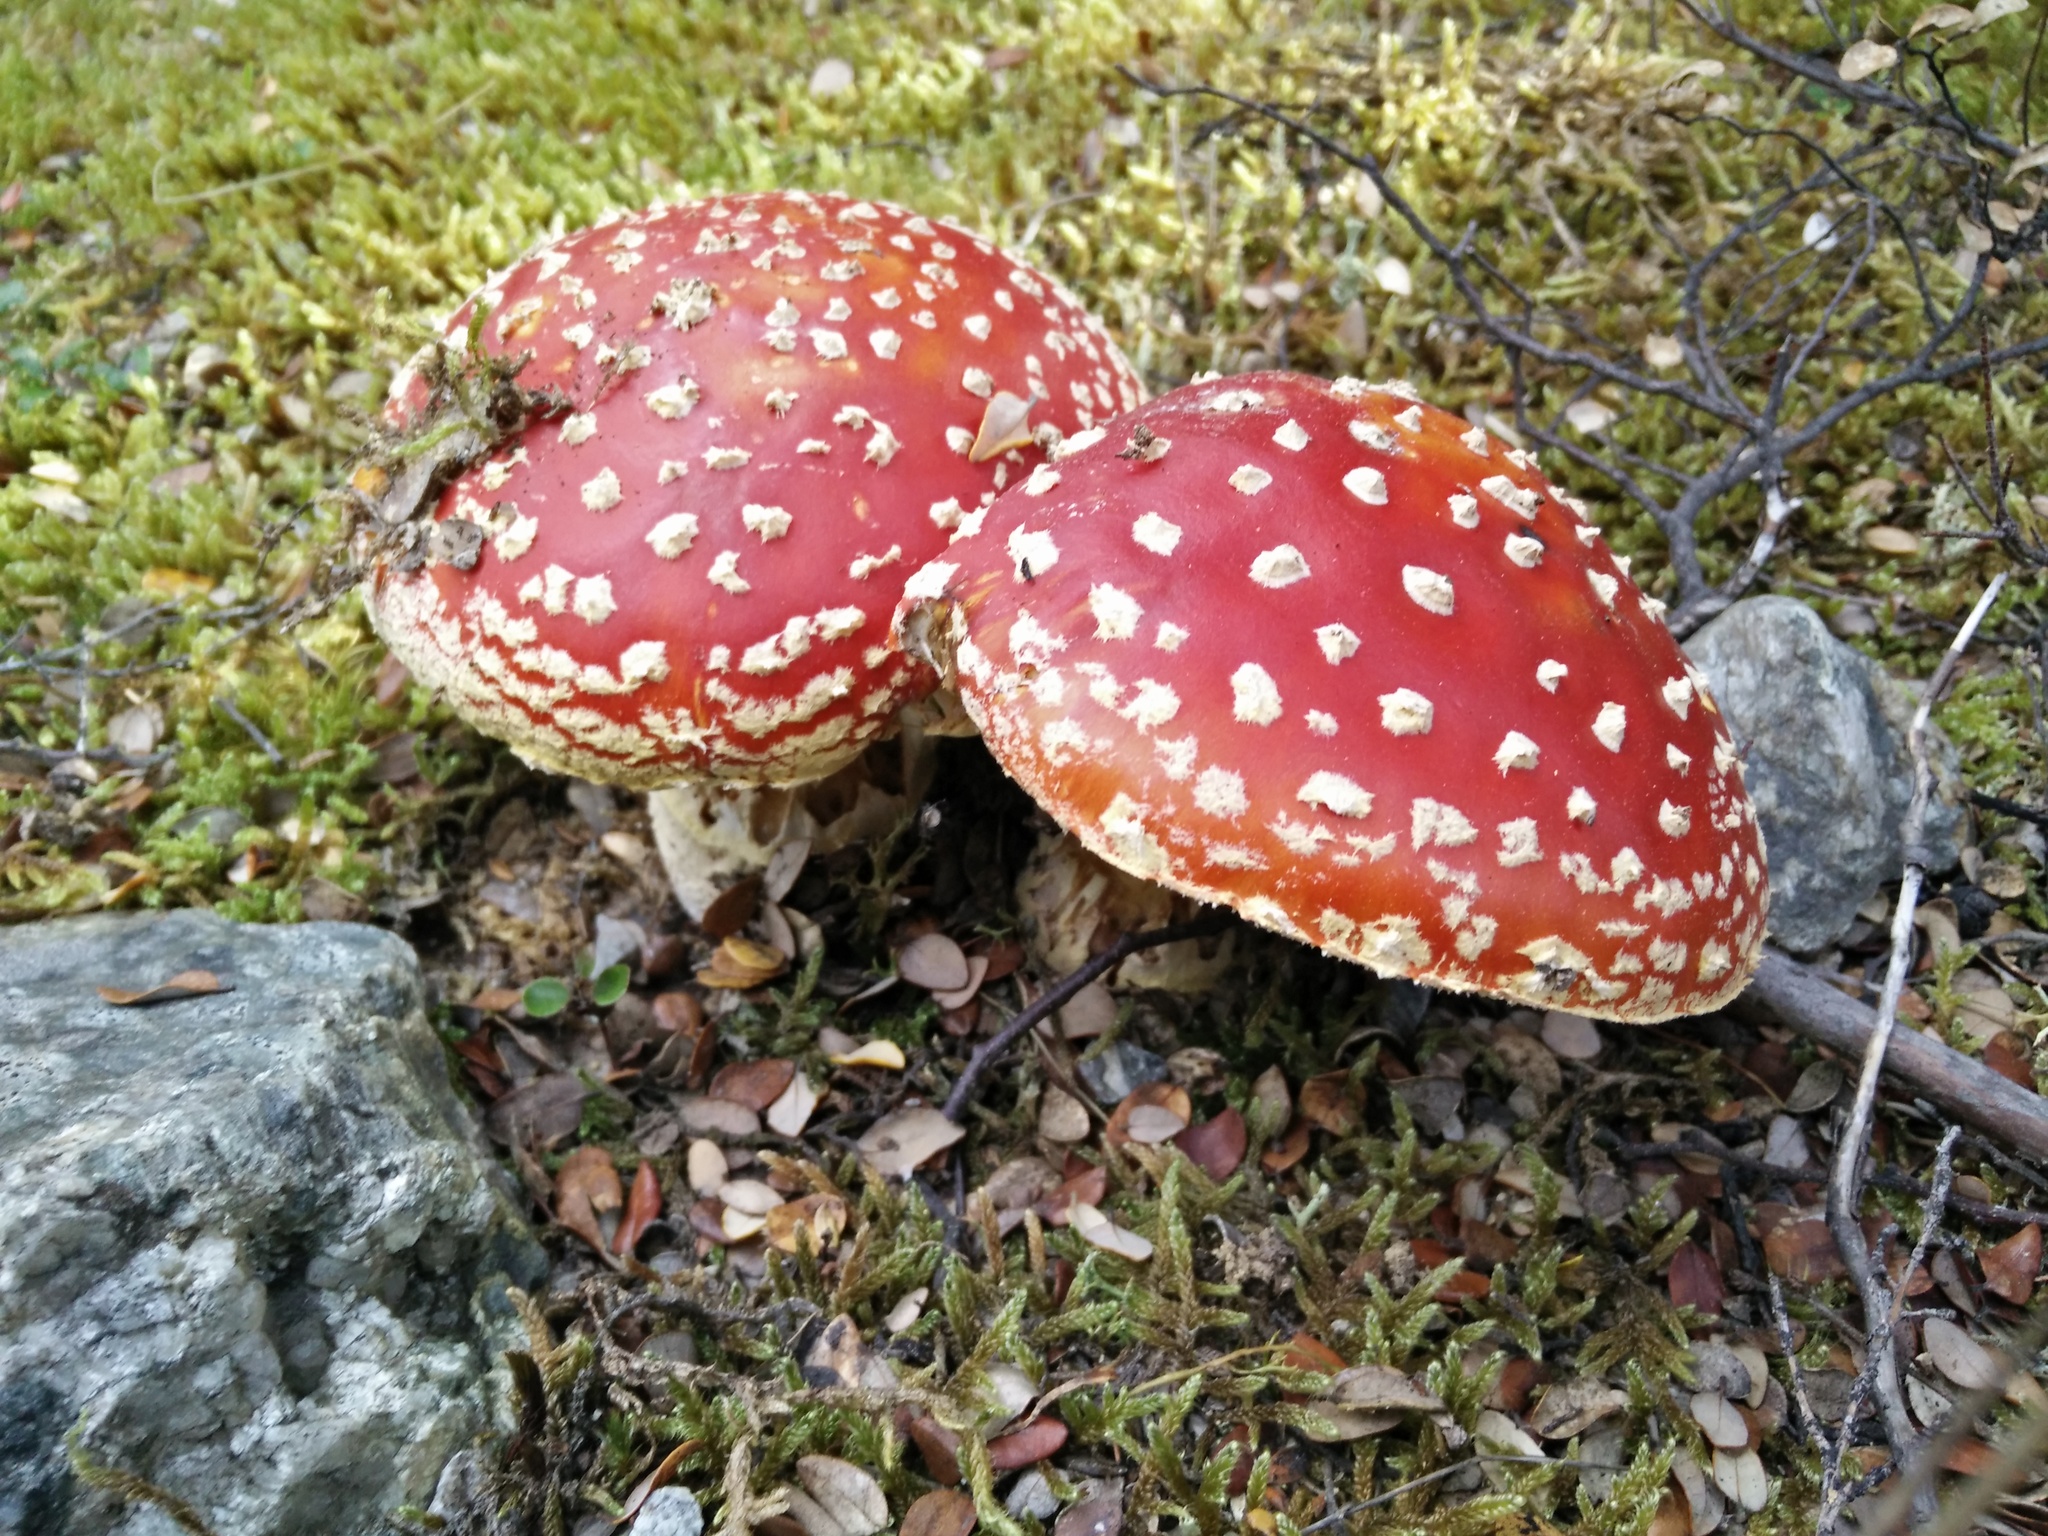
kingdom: Fungi
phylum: Basidiomycota
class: Agaricomycetes
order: Agaricales
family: Amanitaceae
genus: Amanita
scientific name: Amanita muscaria
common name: Fly agaric
